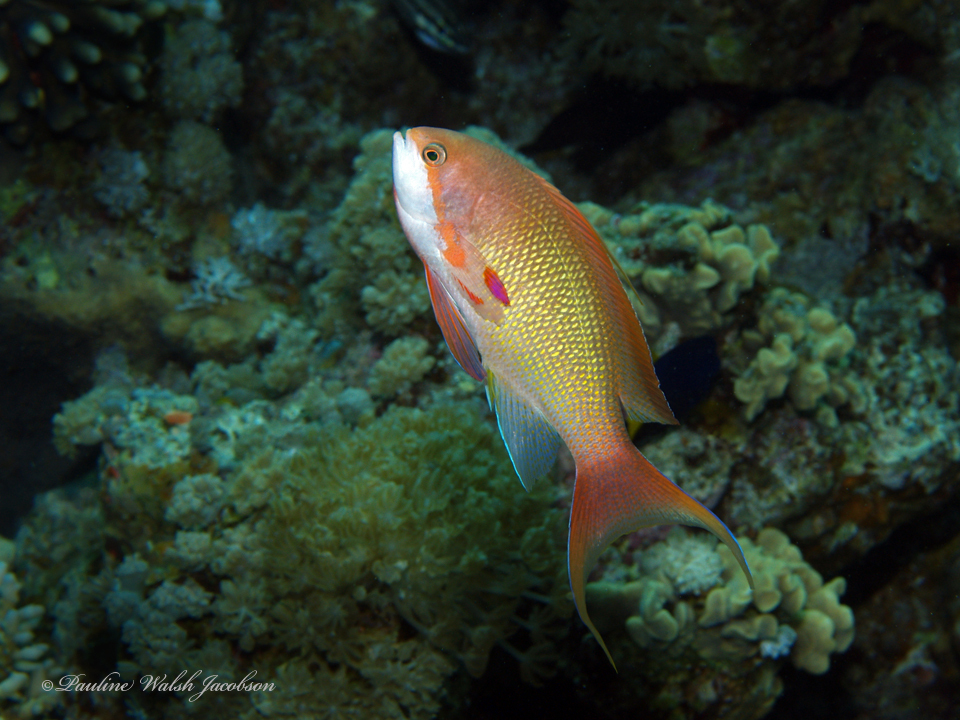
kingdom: Animalia
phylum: Chordata
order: Perciformes
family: Serranidae
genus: Pseudanthias
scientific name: Pseudanthias squamipinnis
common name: Scalefin anthias
